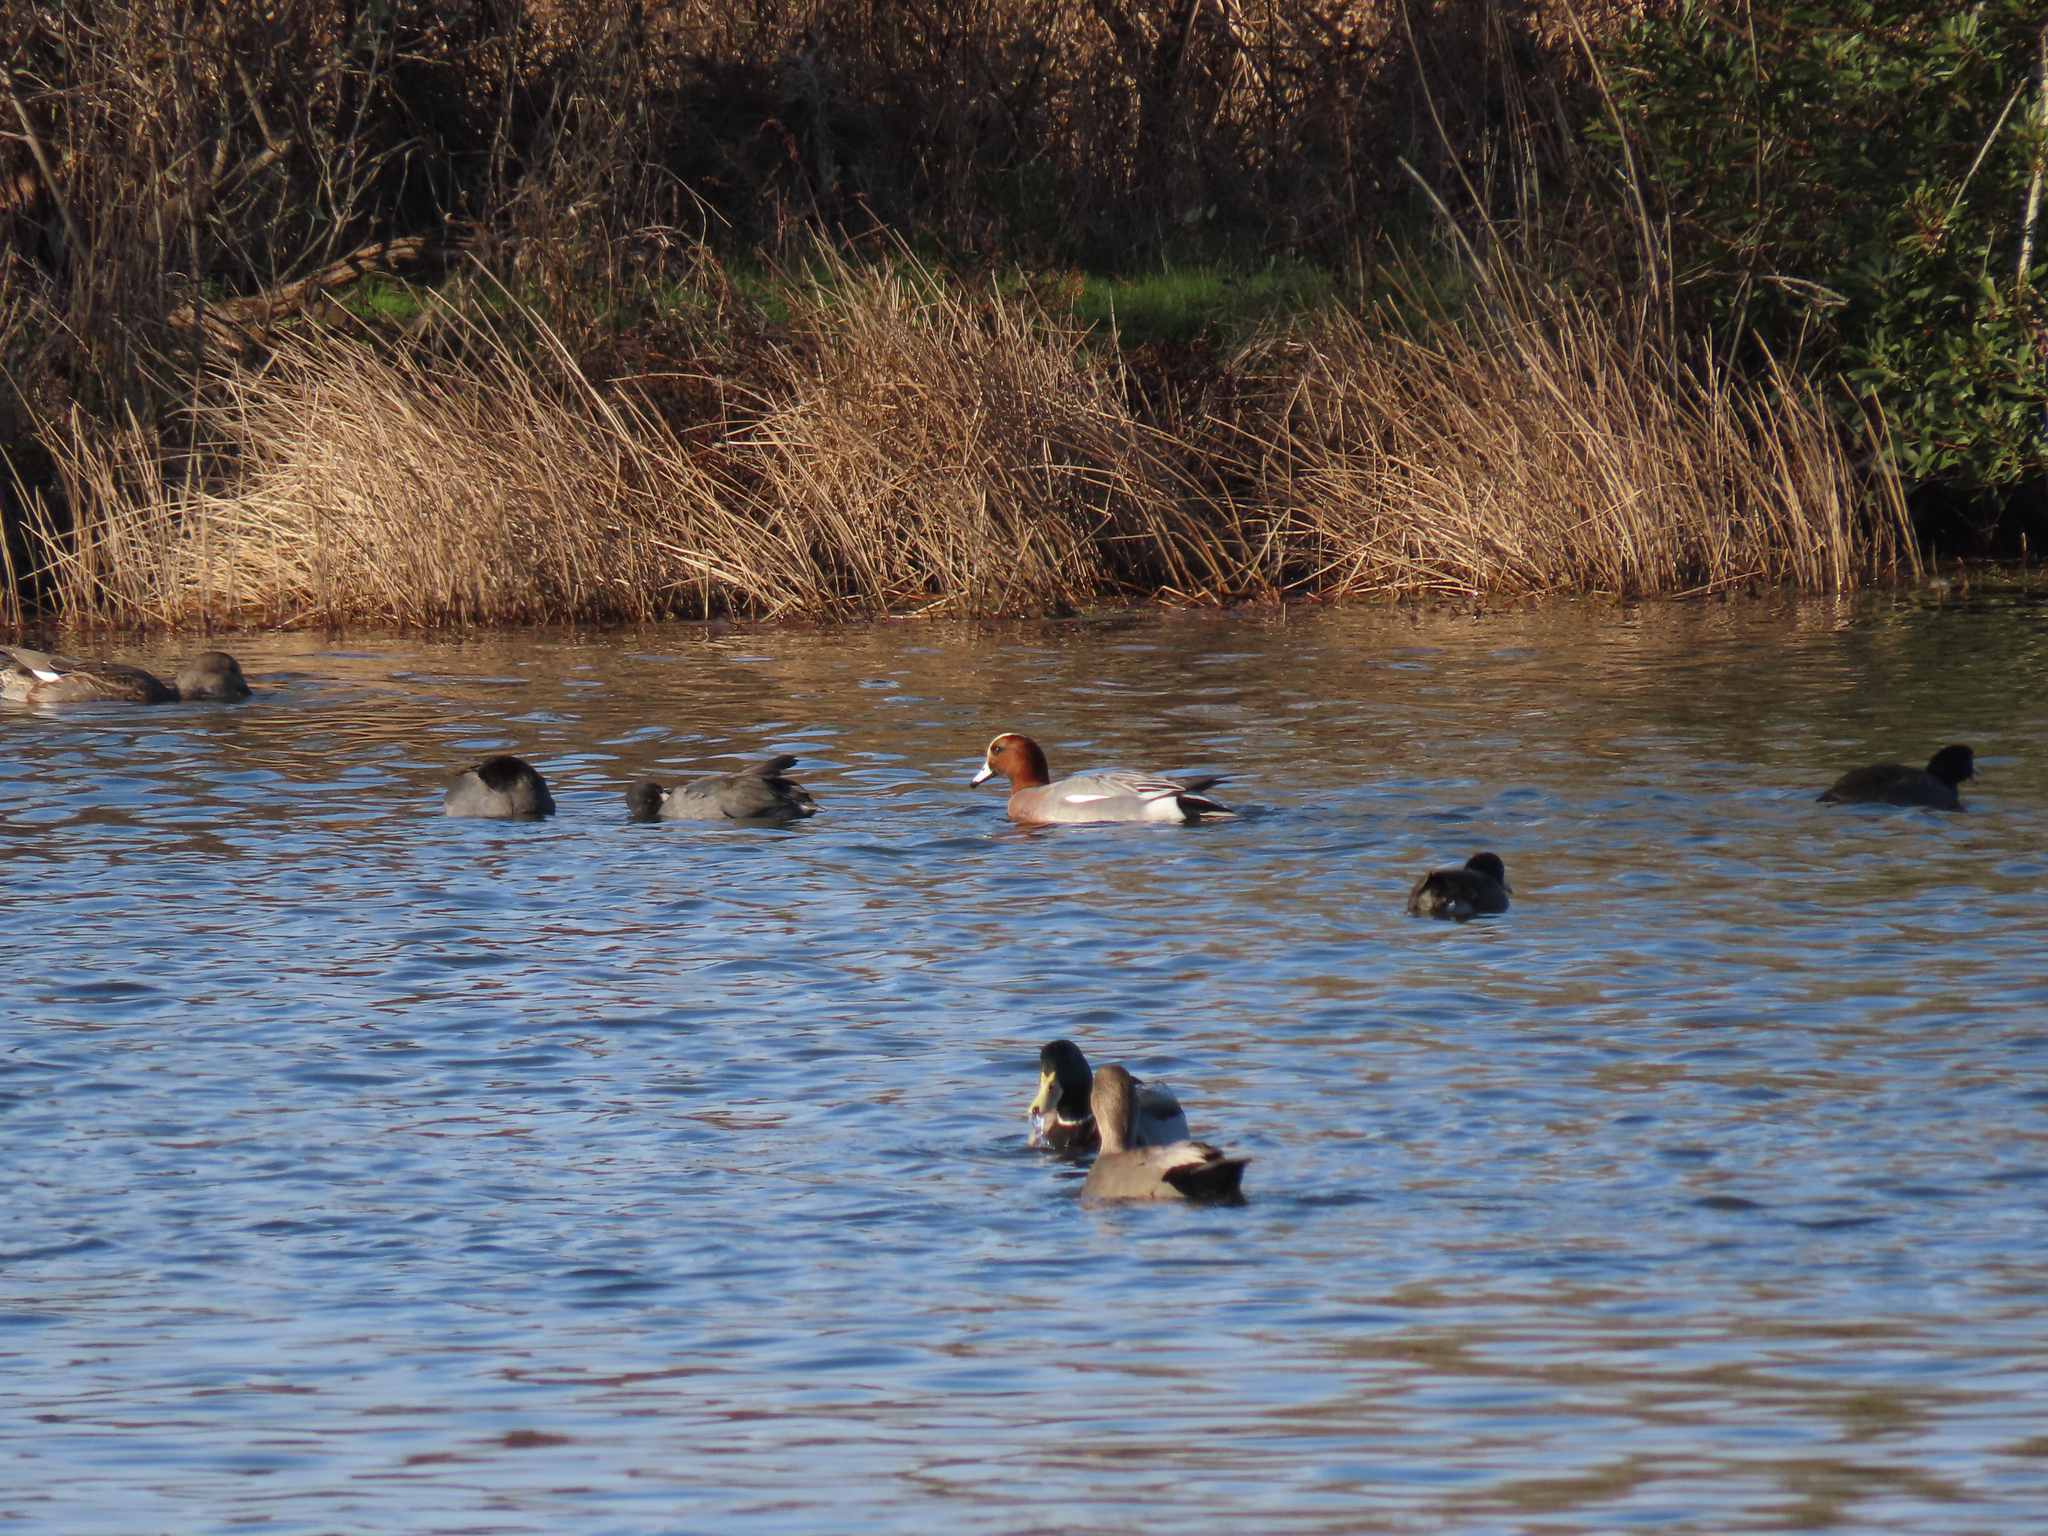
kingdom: Animalia
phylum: Chordata
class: Aves
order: Anseriformes
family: Anatidae
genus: Mareca
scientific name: Mareca penelope
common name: Eurasian wigeon
